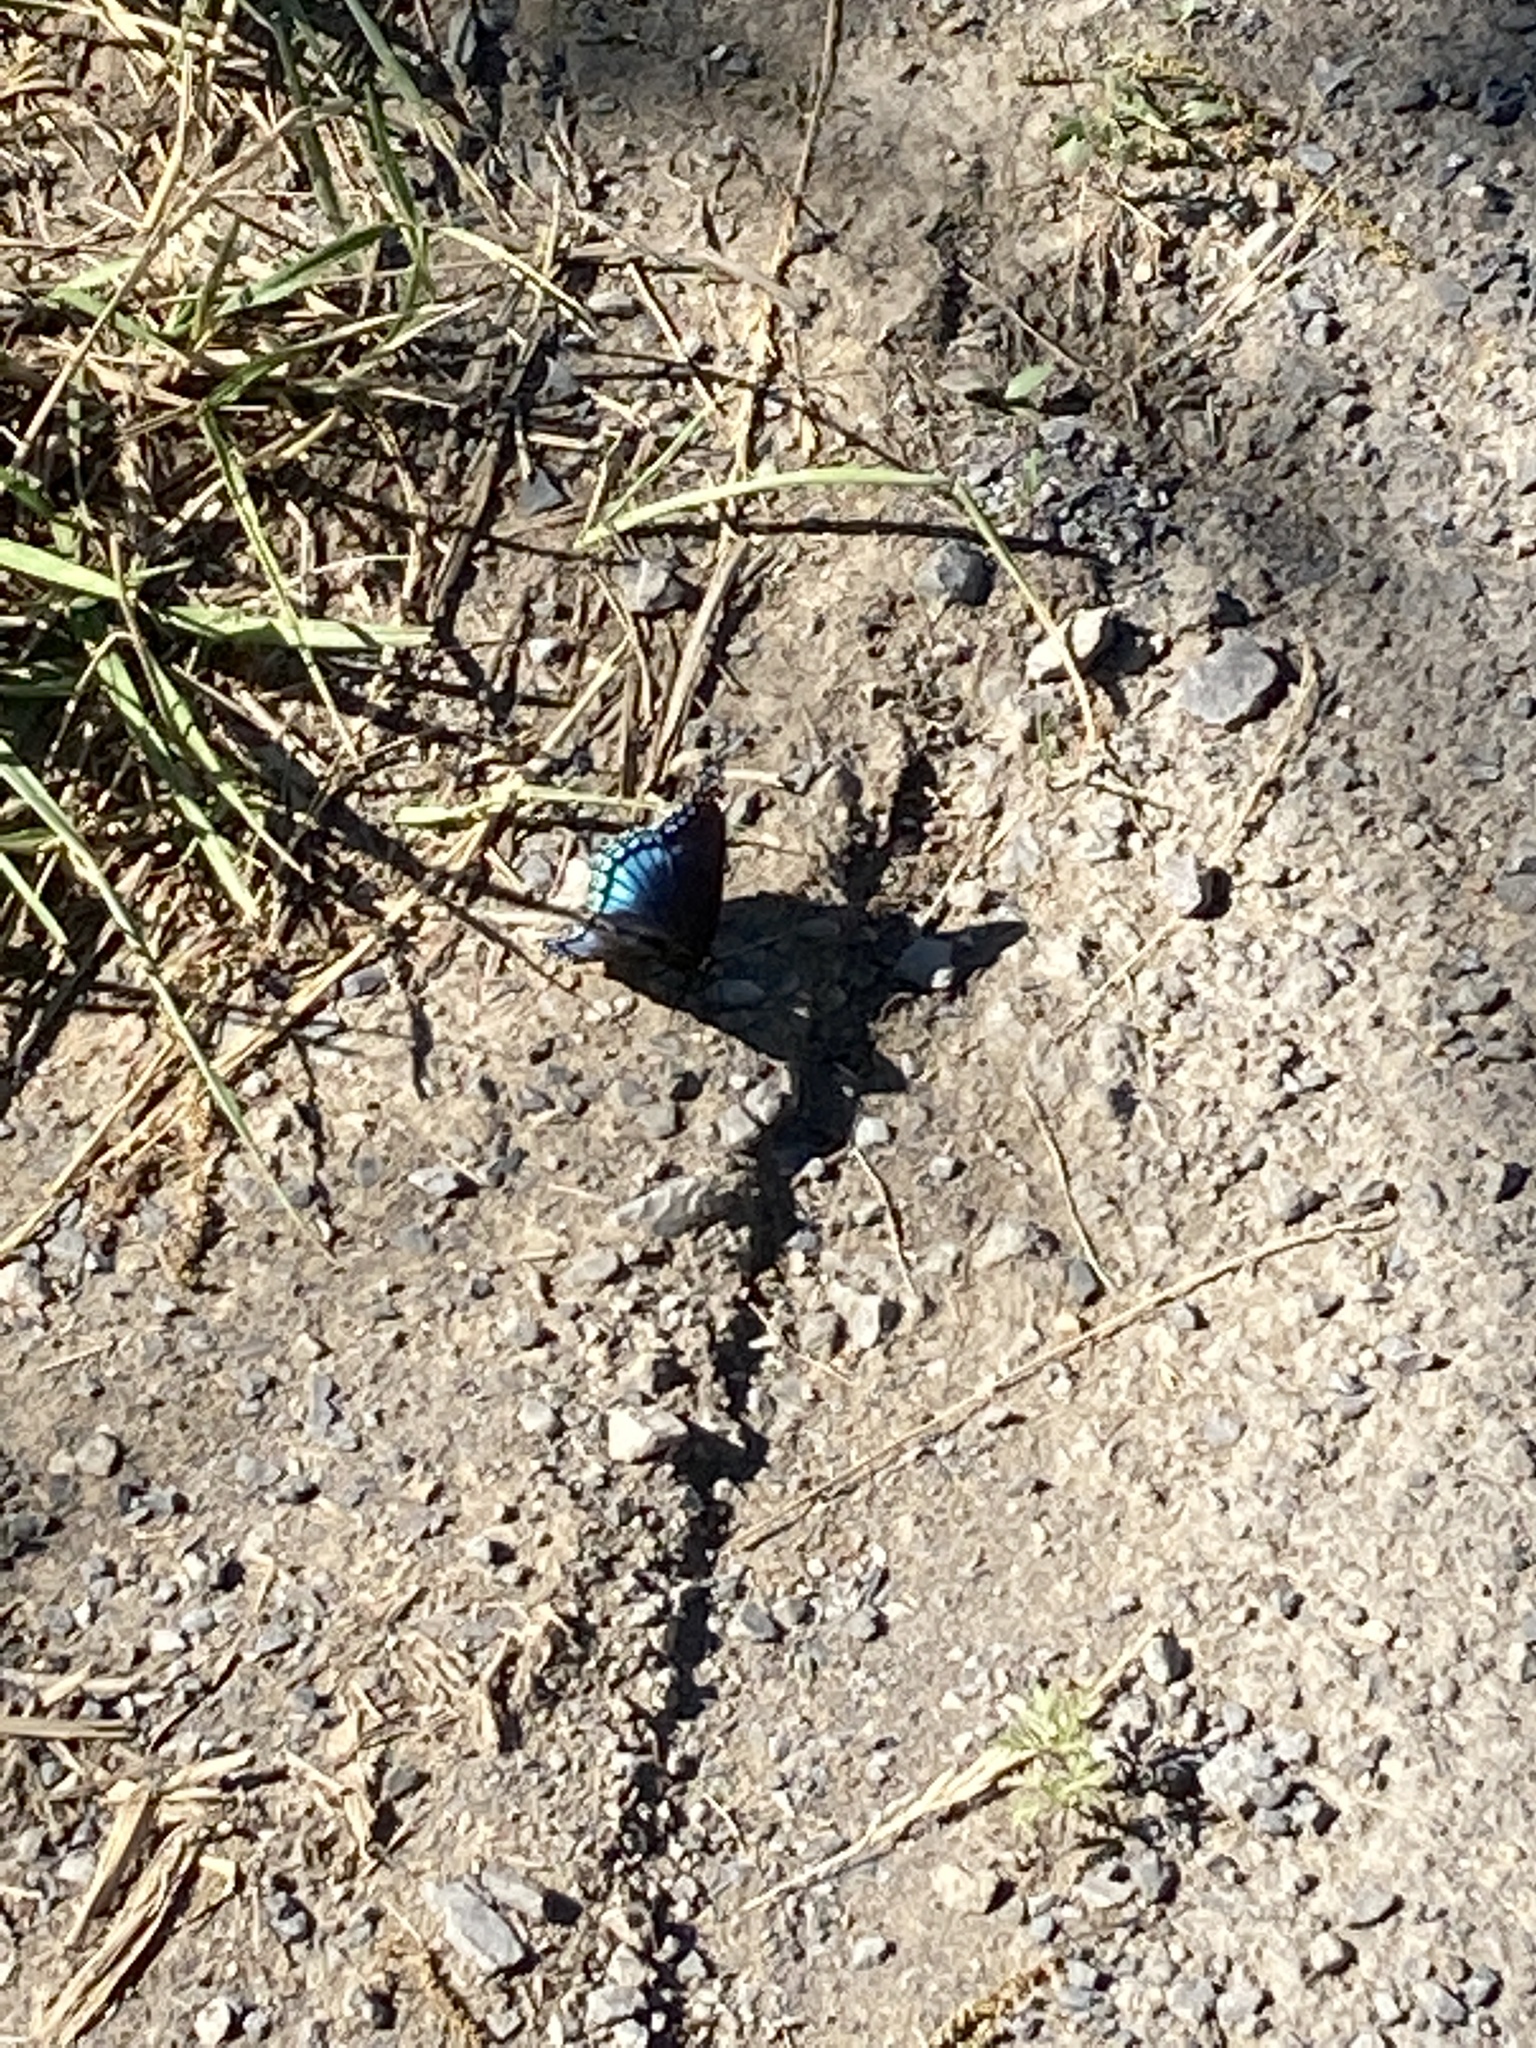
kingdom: Animalia
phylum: Arthropoda
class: Insecta
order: Lepidoptera
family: Nymphalidae
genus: Limenitis
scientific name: Limenitis astyanax
